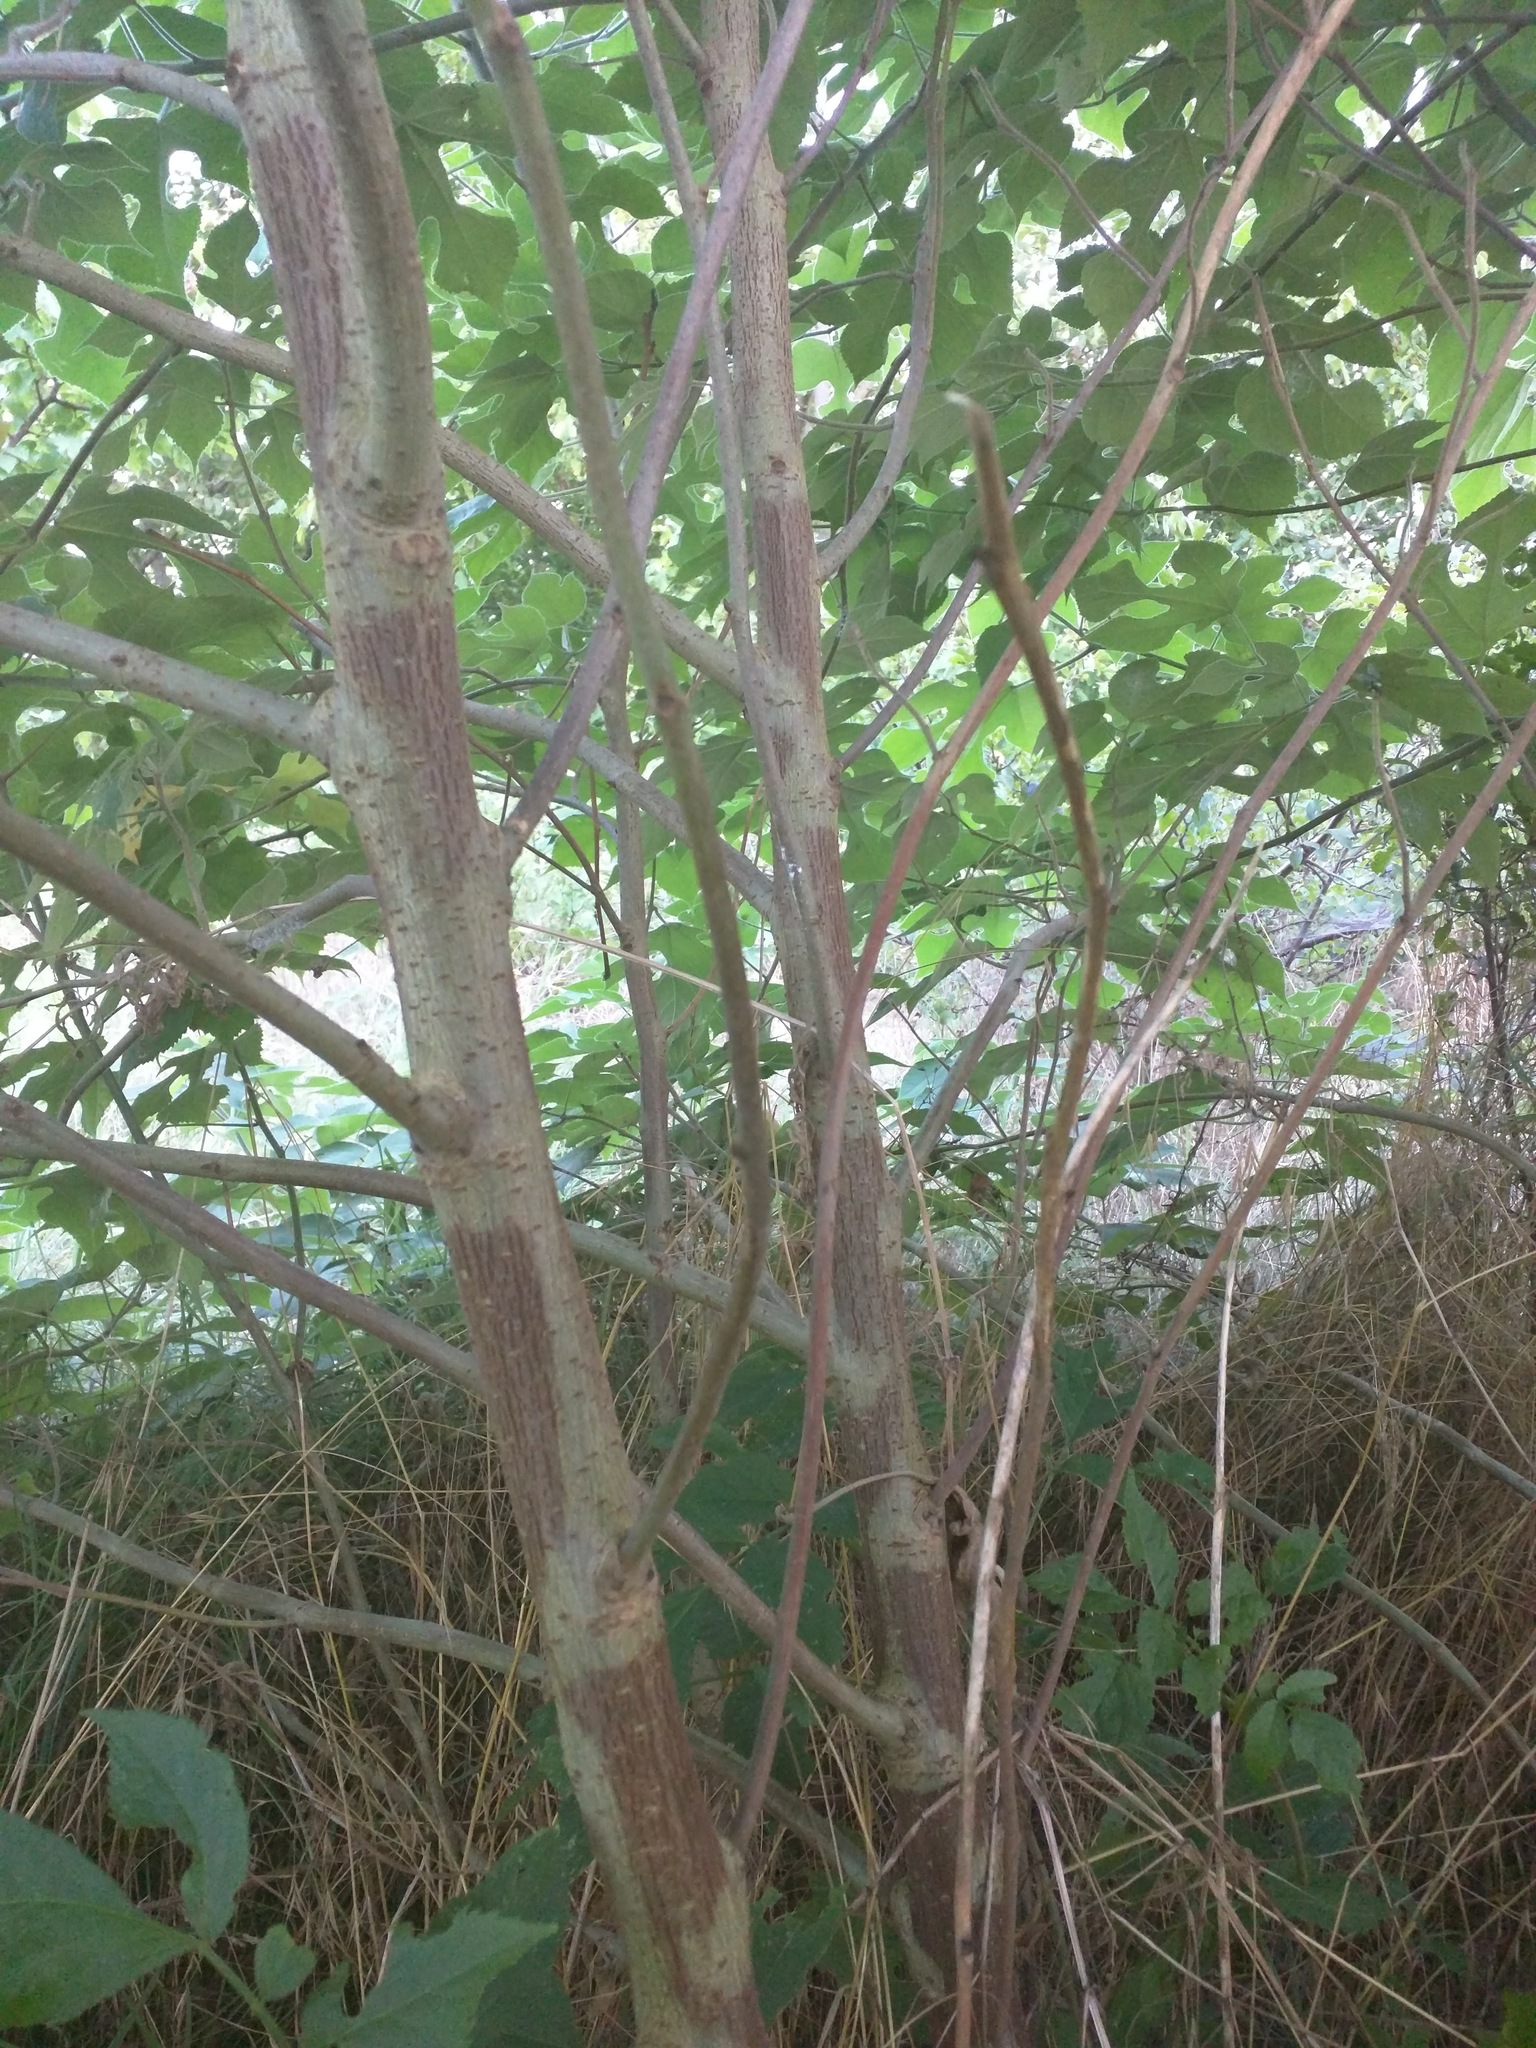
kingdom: Plantae
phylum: Tracheophyta
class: Magnoliopsida
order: Rosales
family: Moraceae
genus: Broussonetia
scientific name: Broussonetia papyrifera
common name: Paper mulberry
